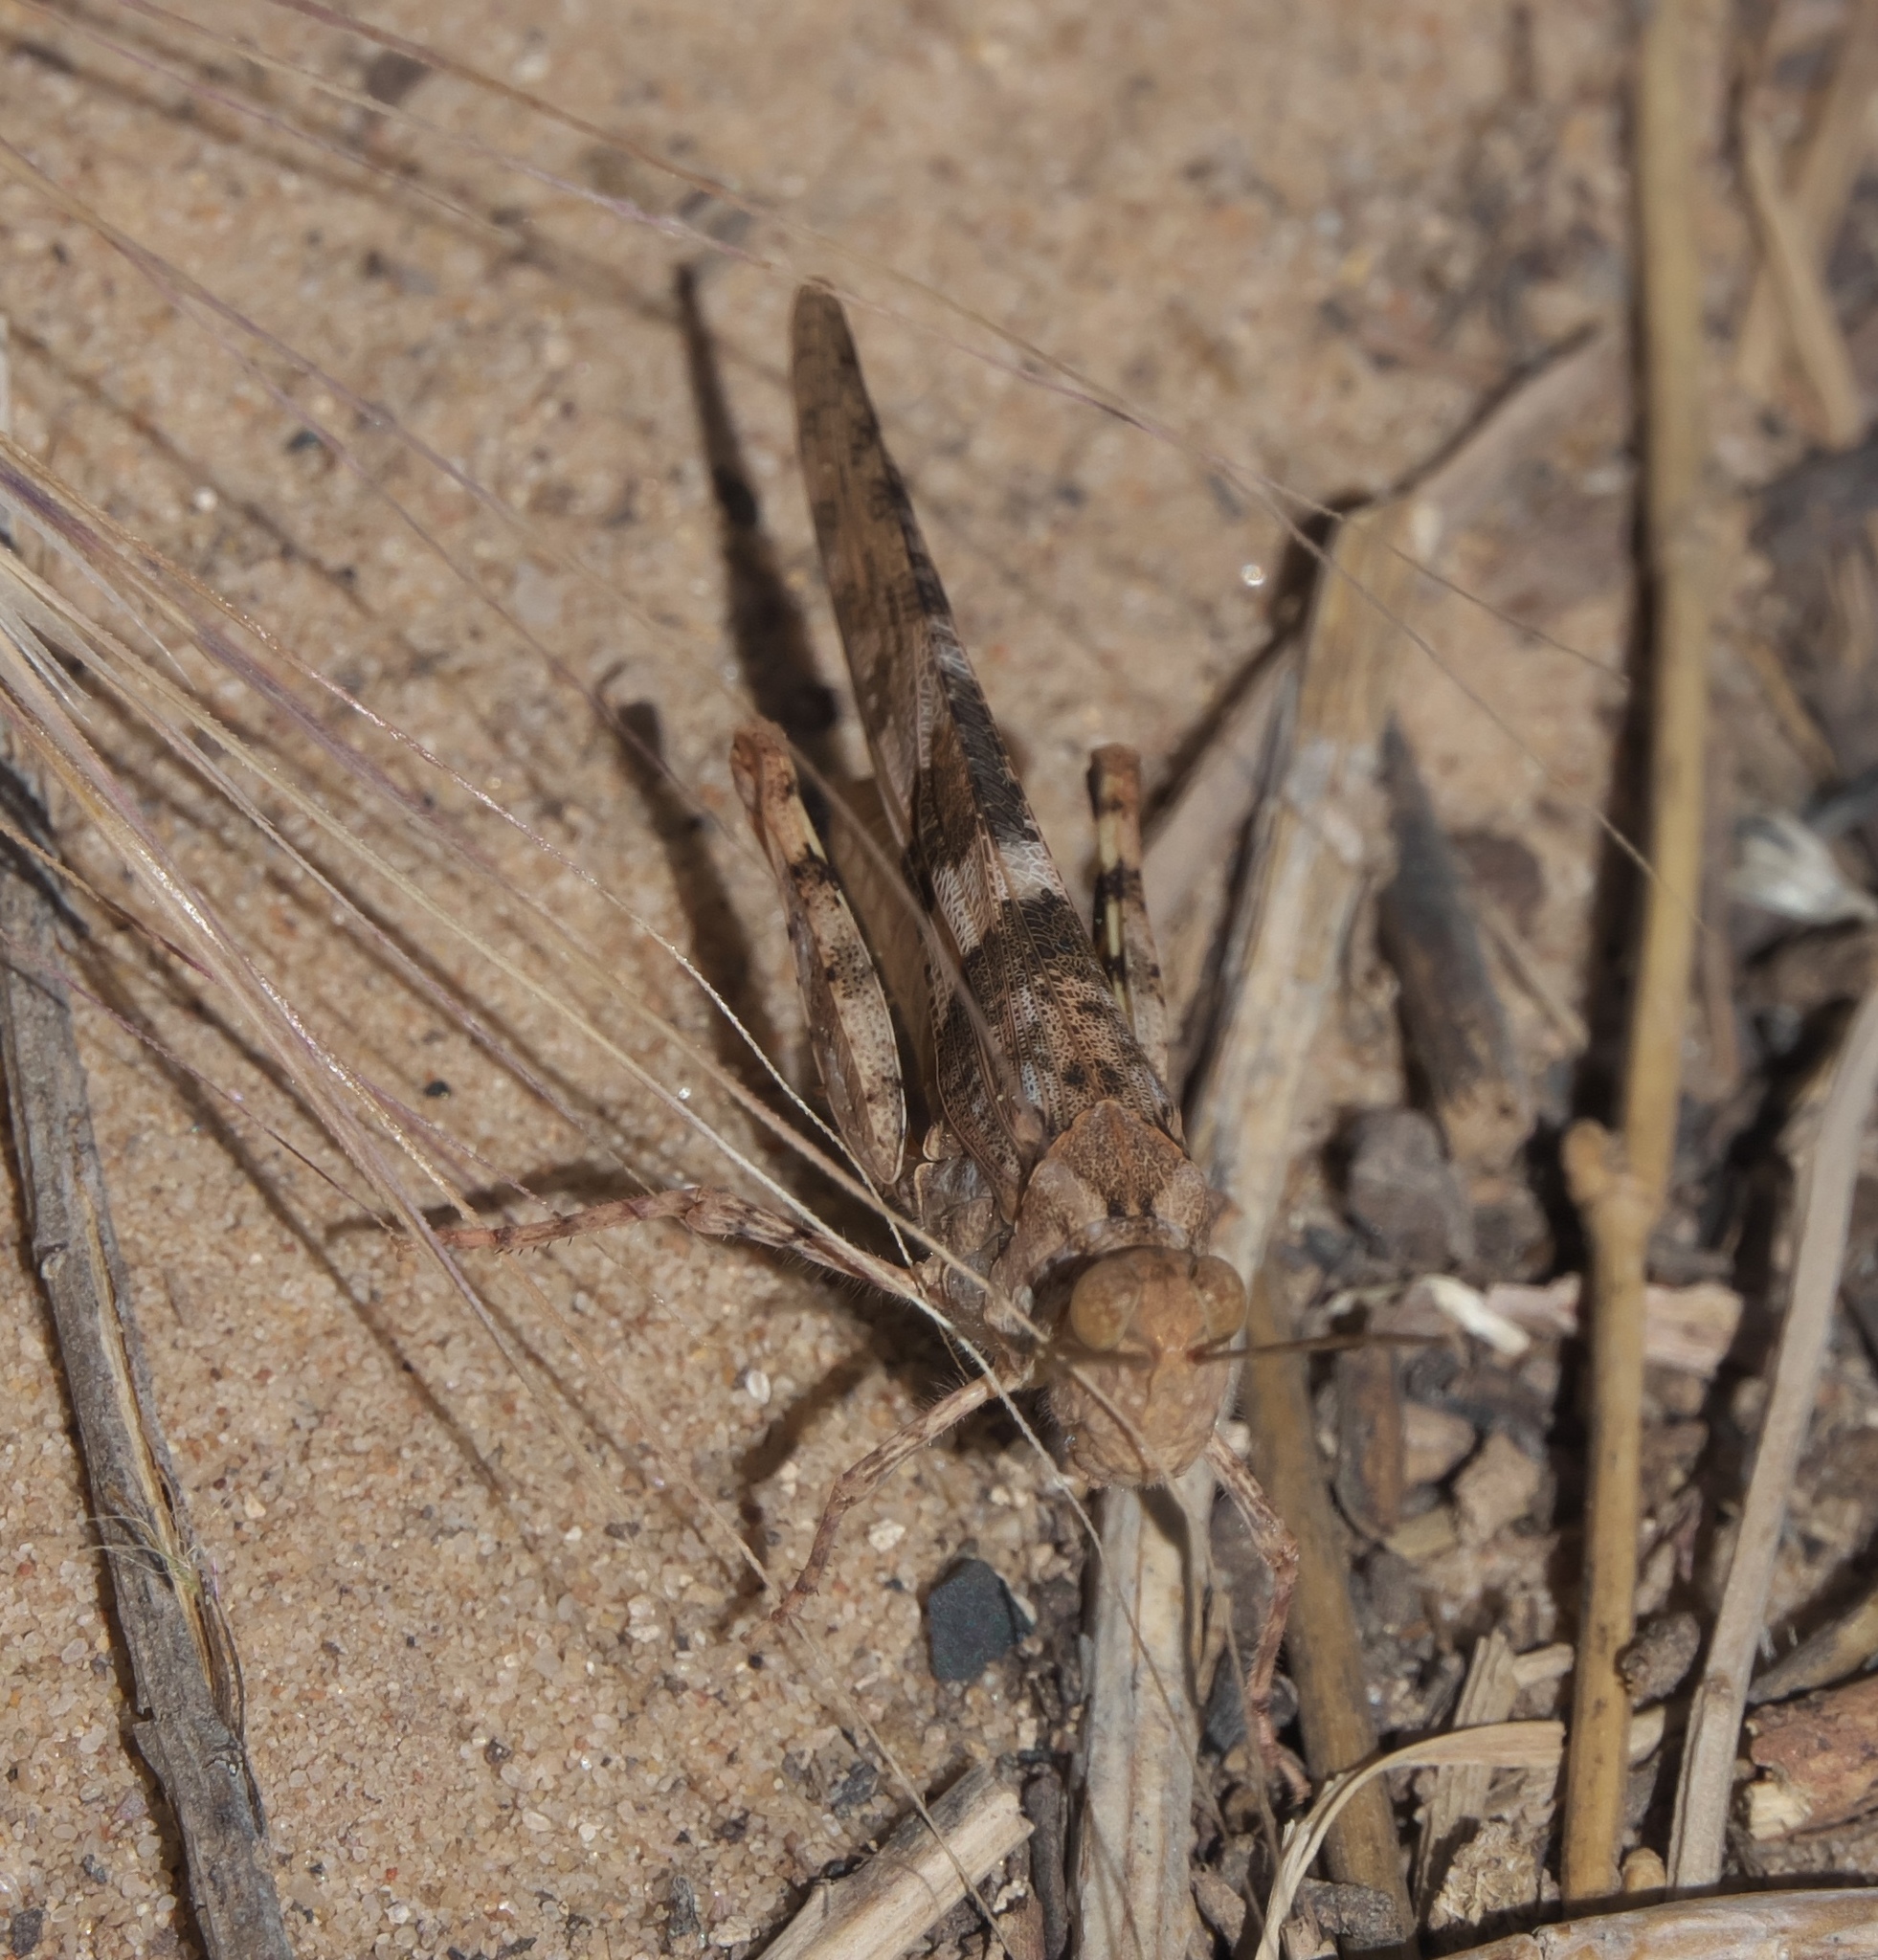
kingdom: Animalia
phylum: Arthropoda
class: Insecta
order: Orthoptera
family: Acrididae
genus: Trimerotropis
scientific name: Trimerotropis pallidipennis
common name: Pallid-winged grasshopper
